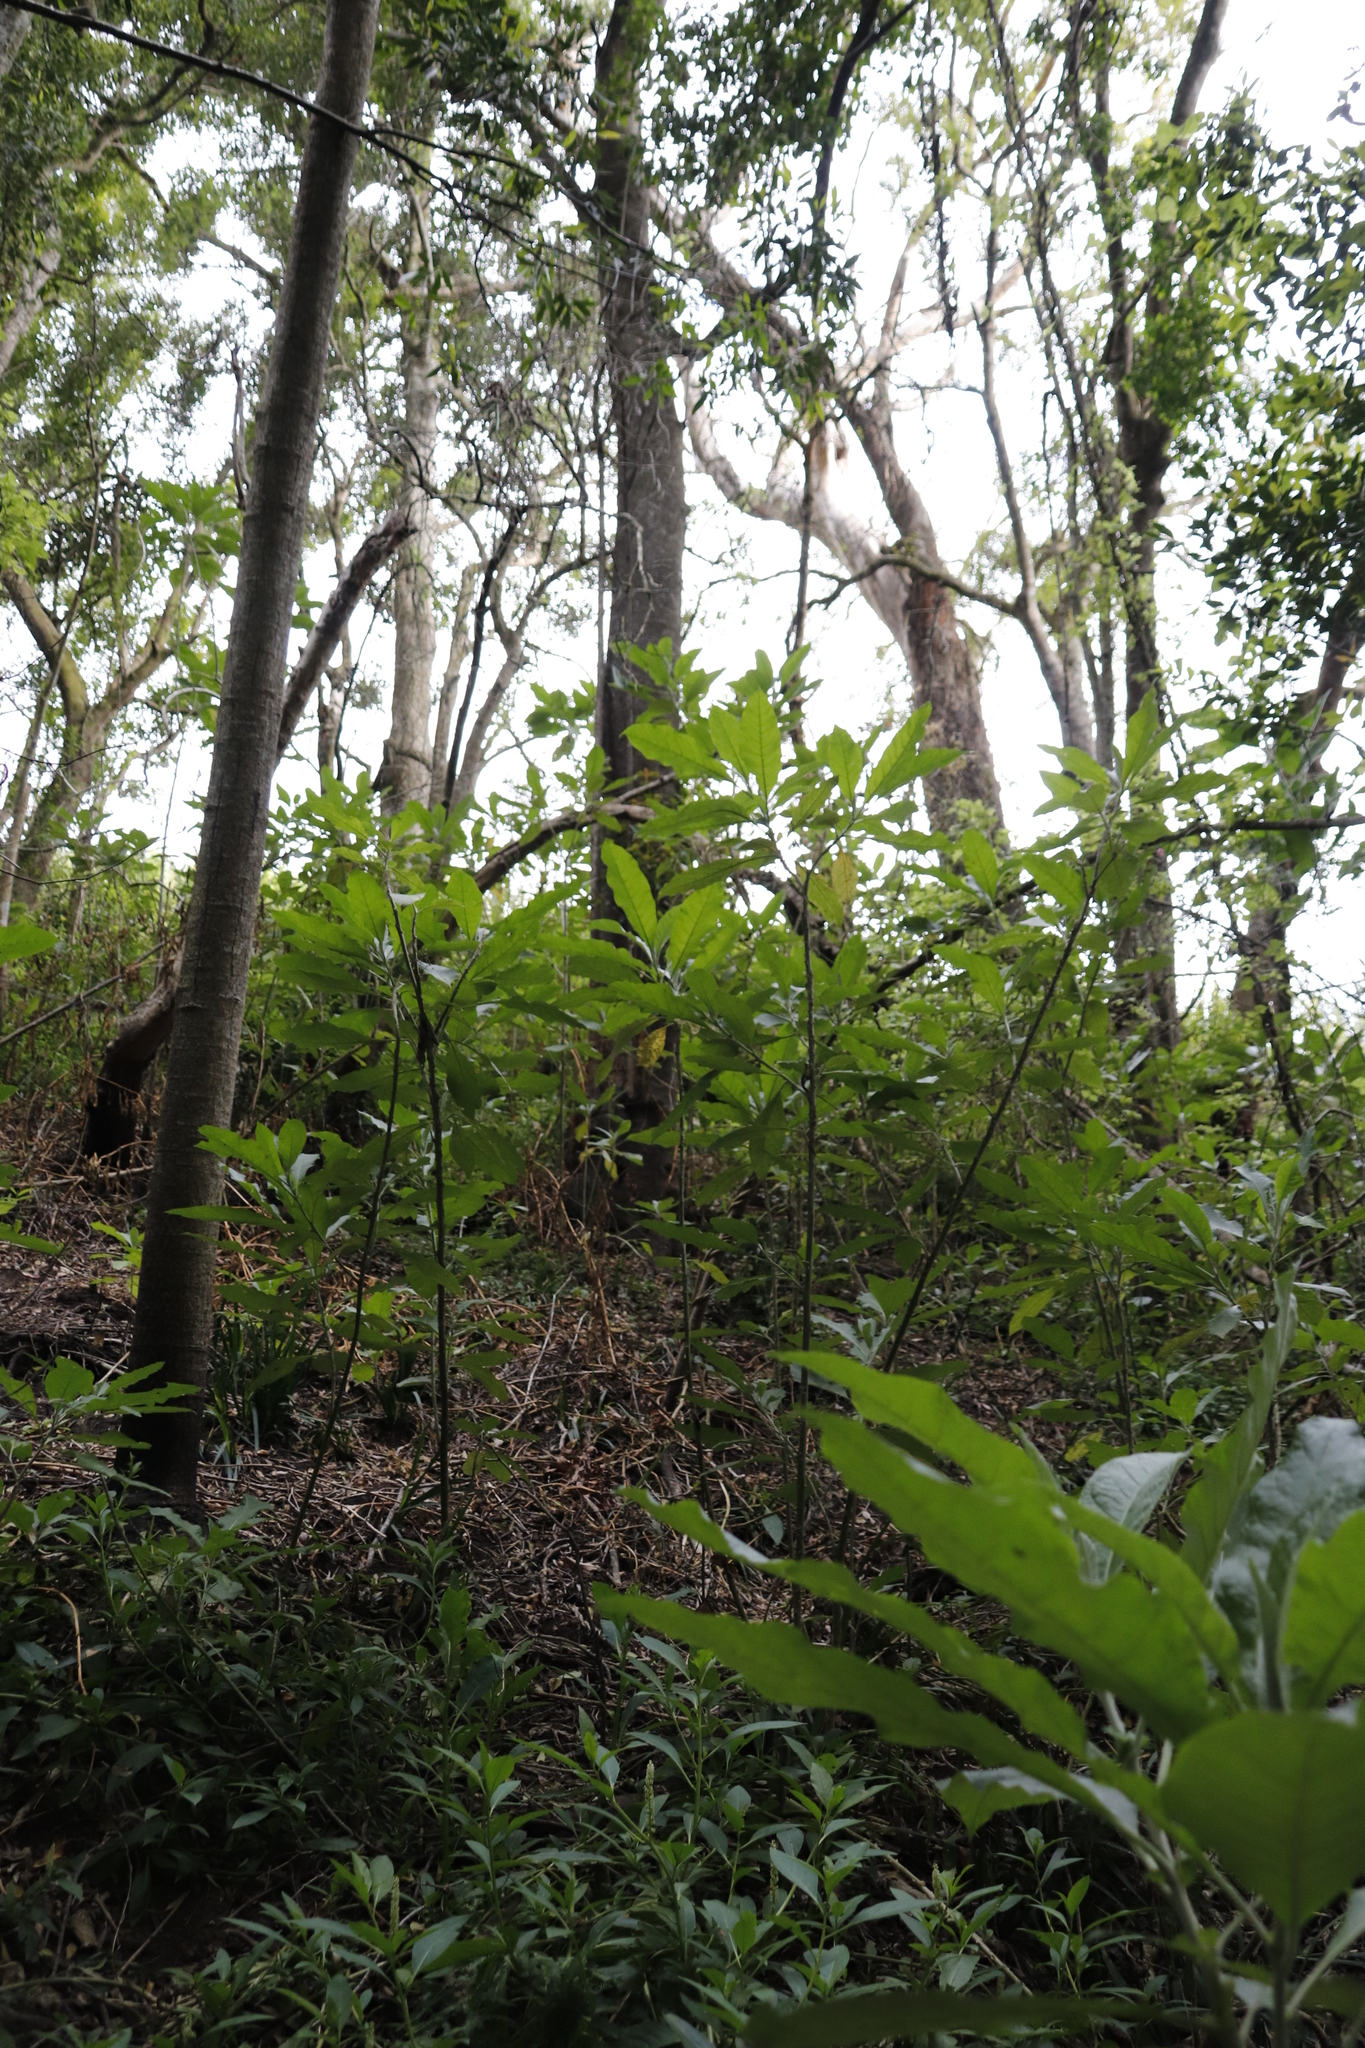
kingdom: Plantae
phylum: Tracheophyta
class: Magnoliopsida
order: Solanales
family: Solanaceae
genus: Solanum
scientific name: Solanum giganteum
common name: Healing-leaf-tree
